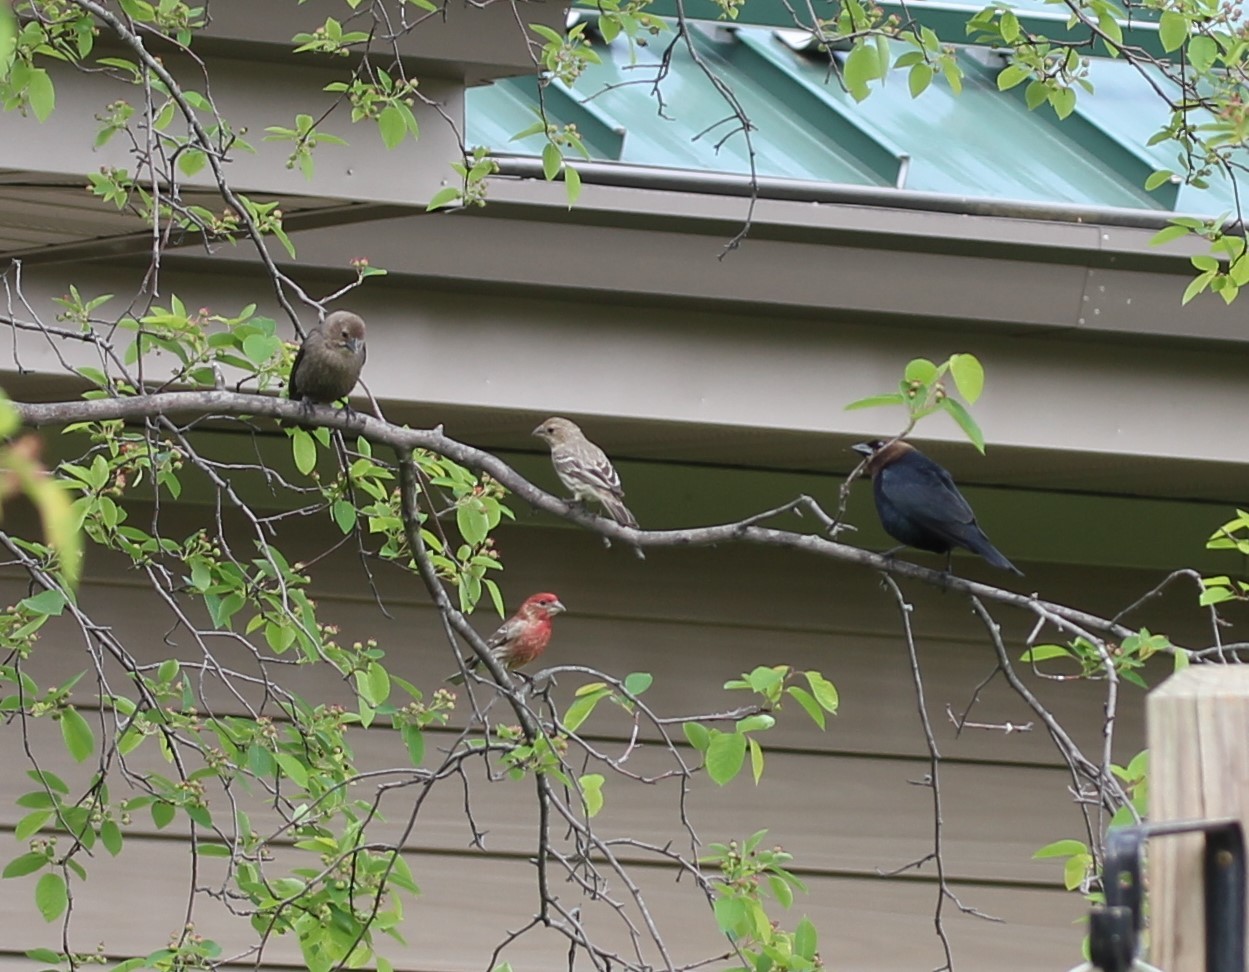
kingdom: Animalia
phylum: Chordata
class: Aves
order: Passeriformes
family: Fringillidae
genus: Haemorhous
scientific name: Haemorhous mexicanus
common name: House finch
